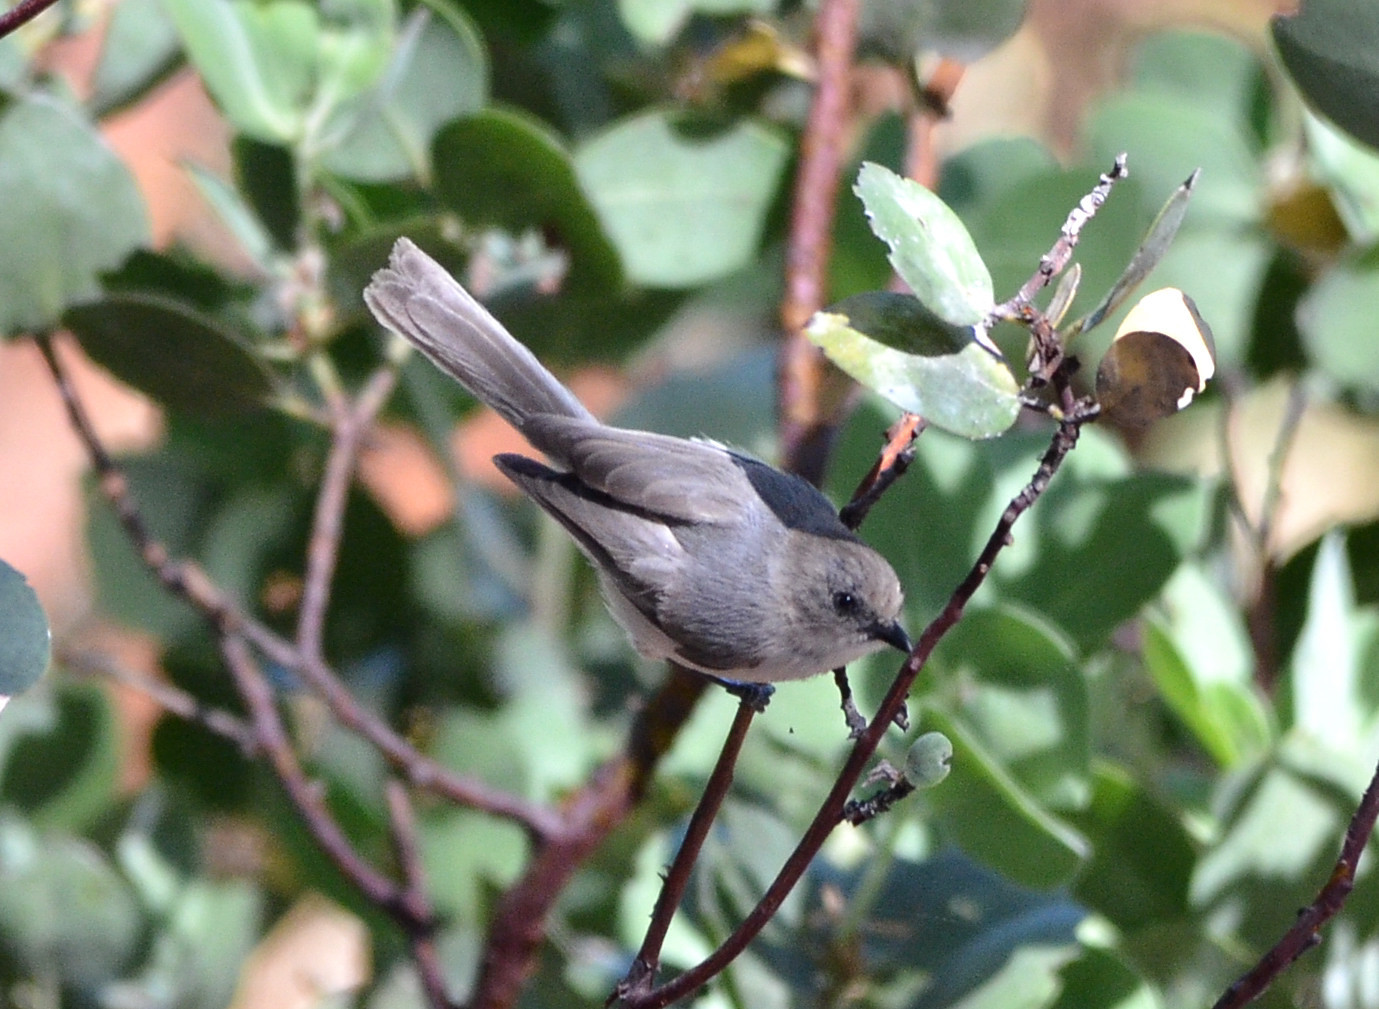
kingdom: Animalia
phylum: Chordata
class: Aves
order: Passeriformes
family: Aegithalidae
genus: Psaltriparus
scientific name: Psaltriparus minimus
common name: American bushtit
